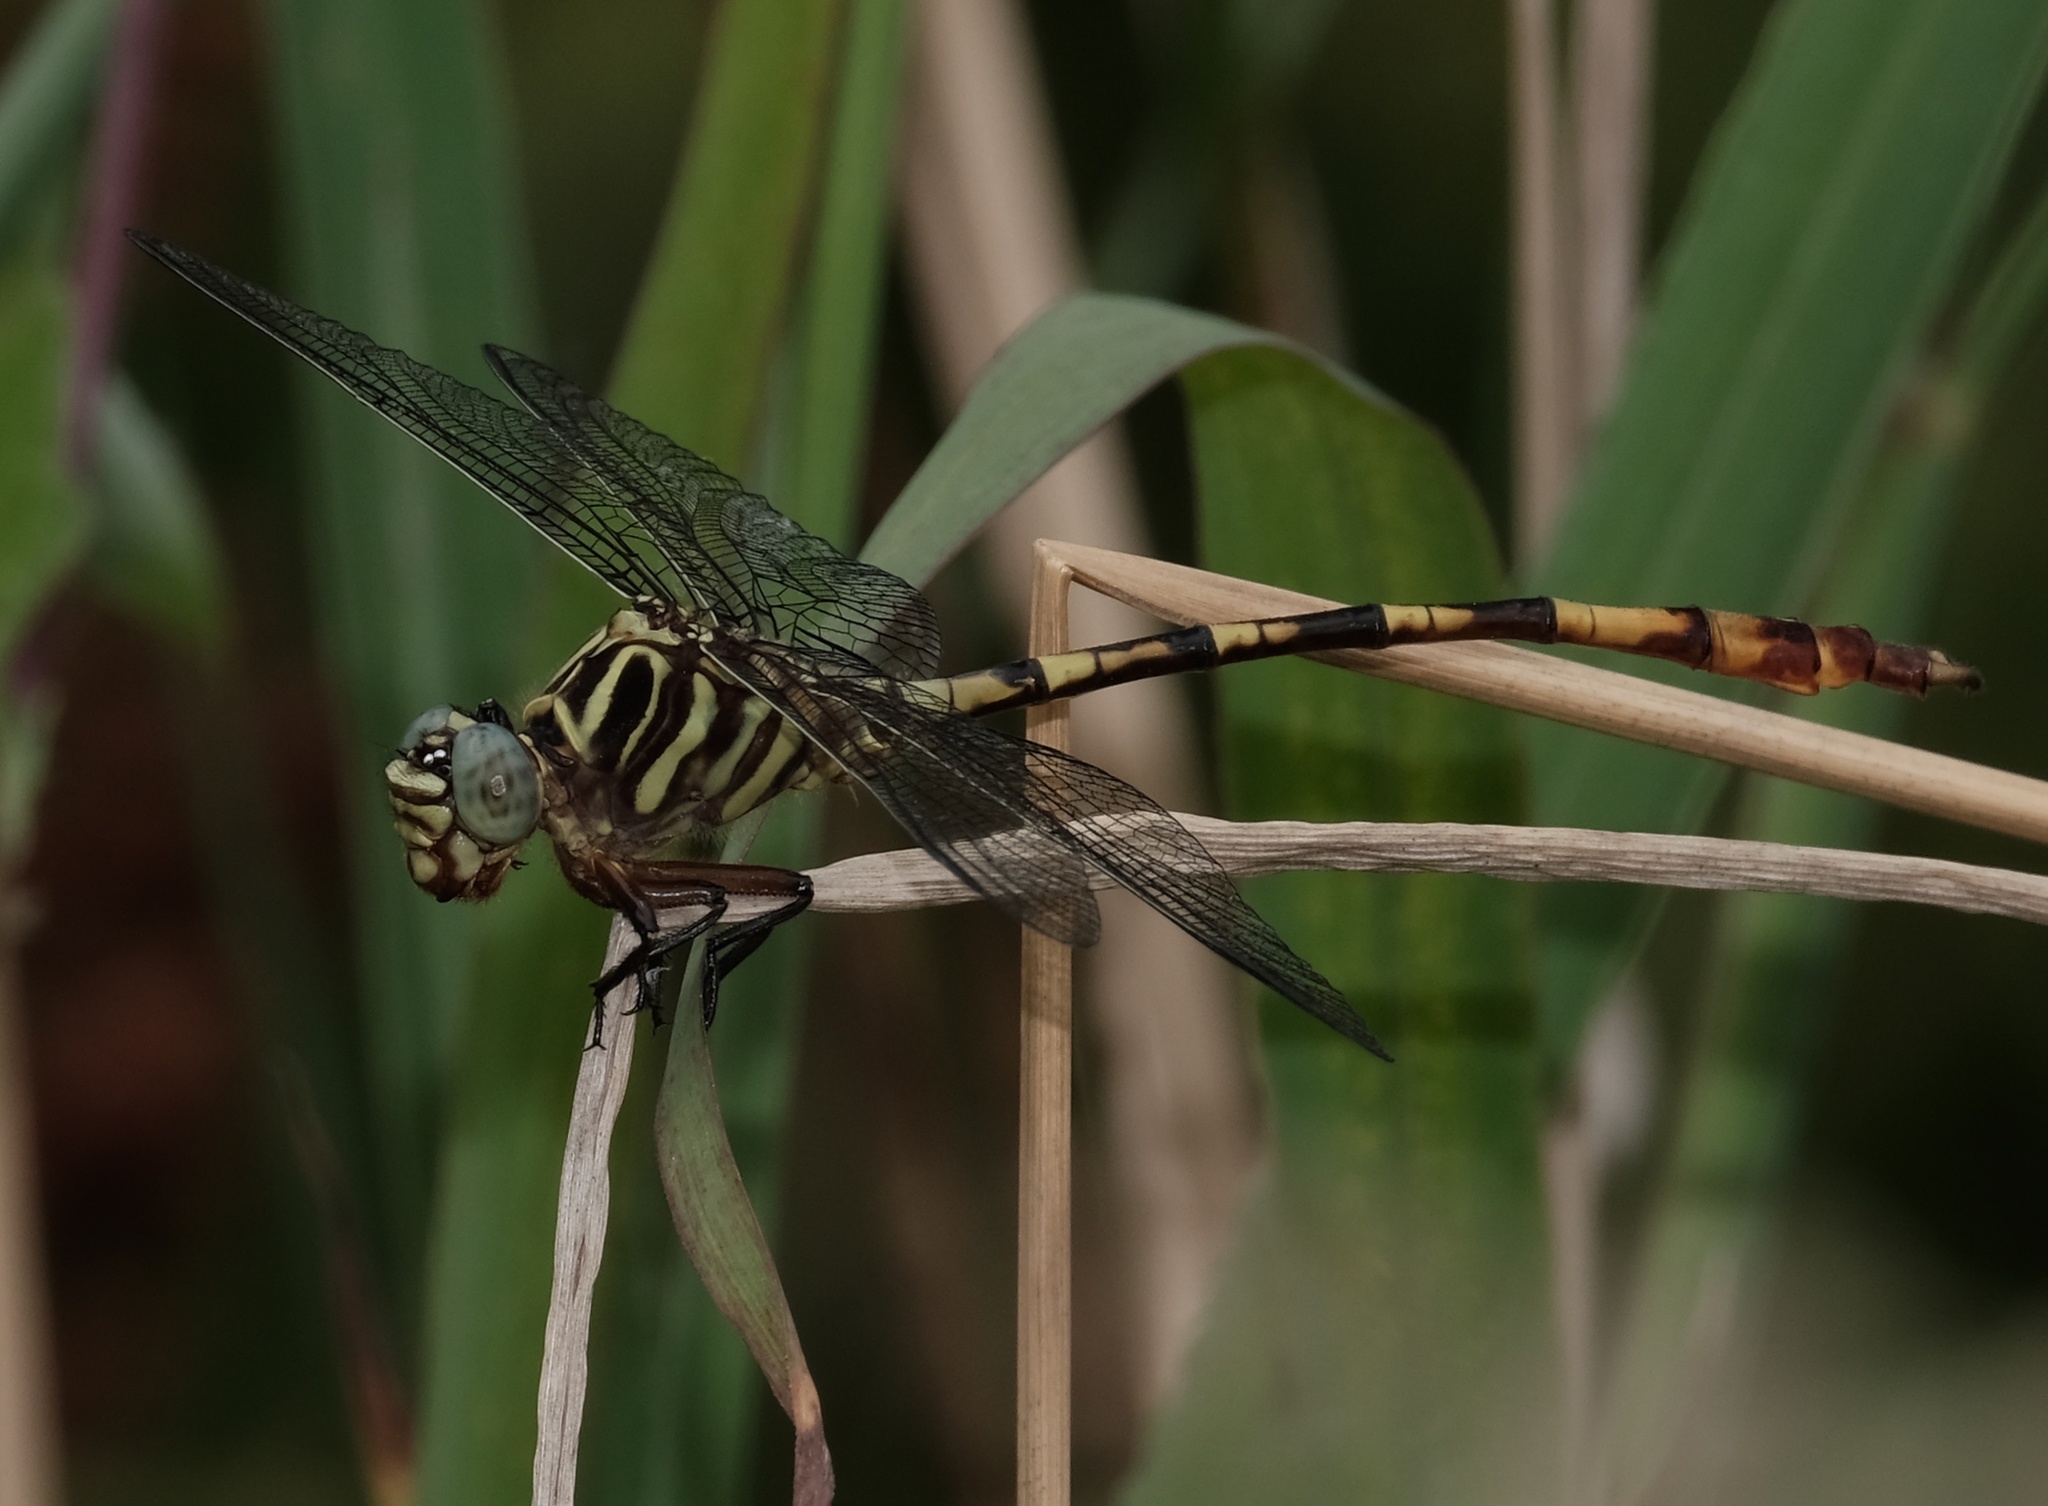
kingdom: Animalia
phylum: Arthropoda
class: Insecta
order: Odonata
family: Gomphidae
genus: Aphylla
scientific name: Aphylla angustifolia
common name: Broad-striped forceptail
